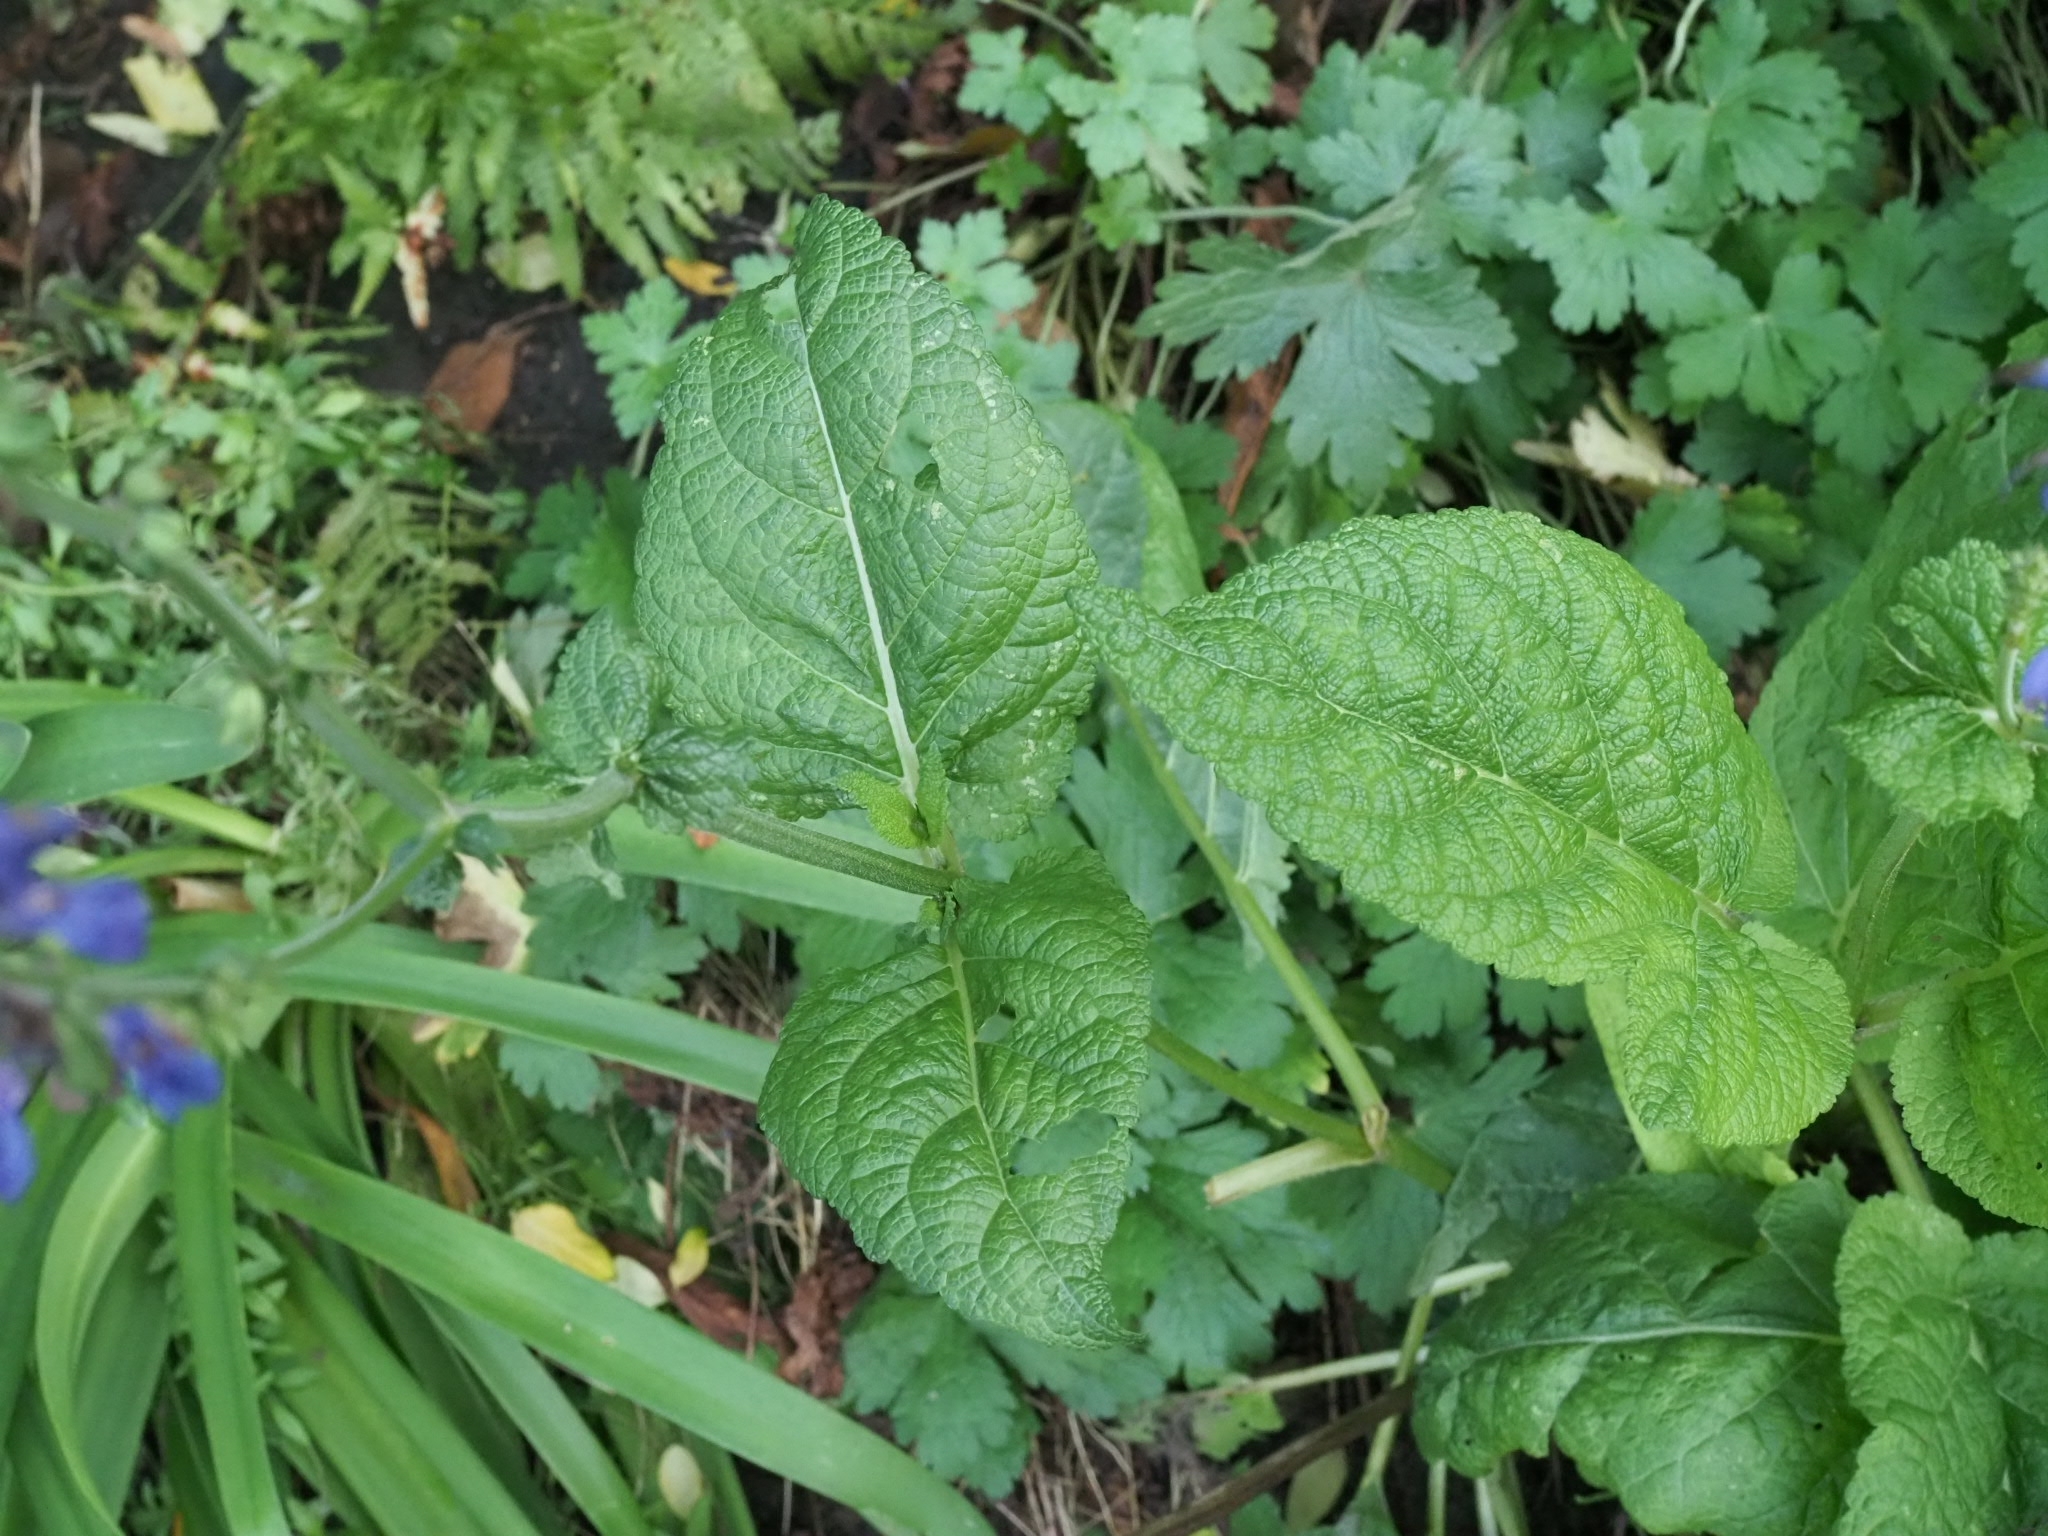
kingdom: Plantae
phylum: Tracheophyta
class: Magnoliopsida
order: Lamiales
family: Lamiaceae
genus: Salvia
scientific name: Salvia pratensis
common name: Meadow sage
